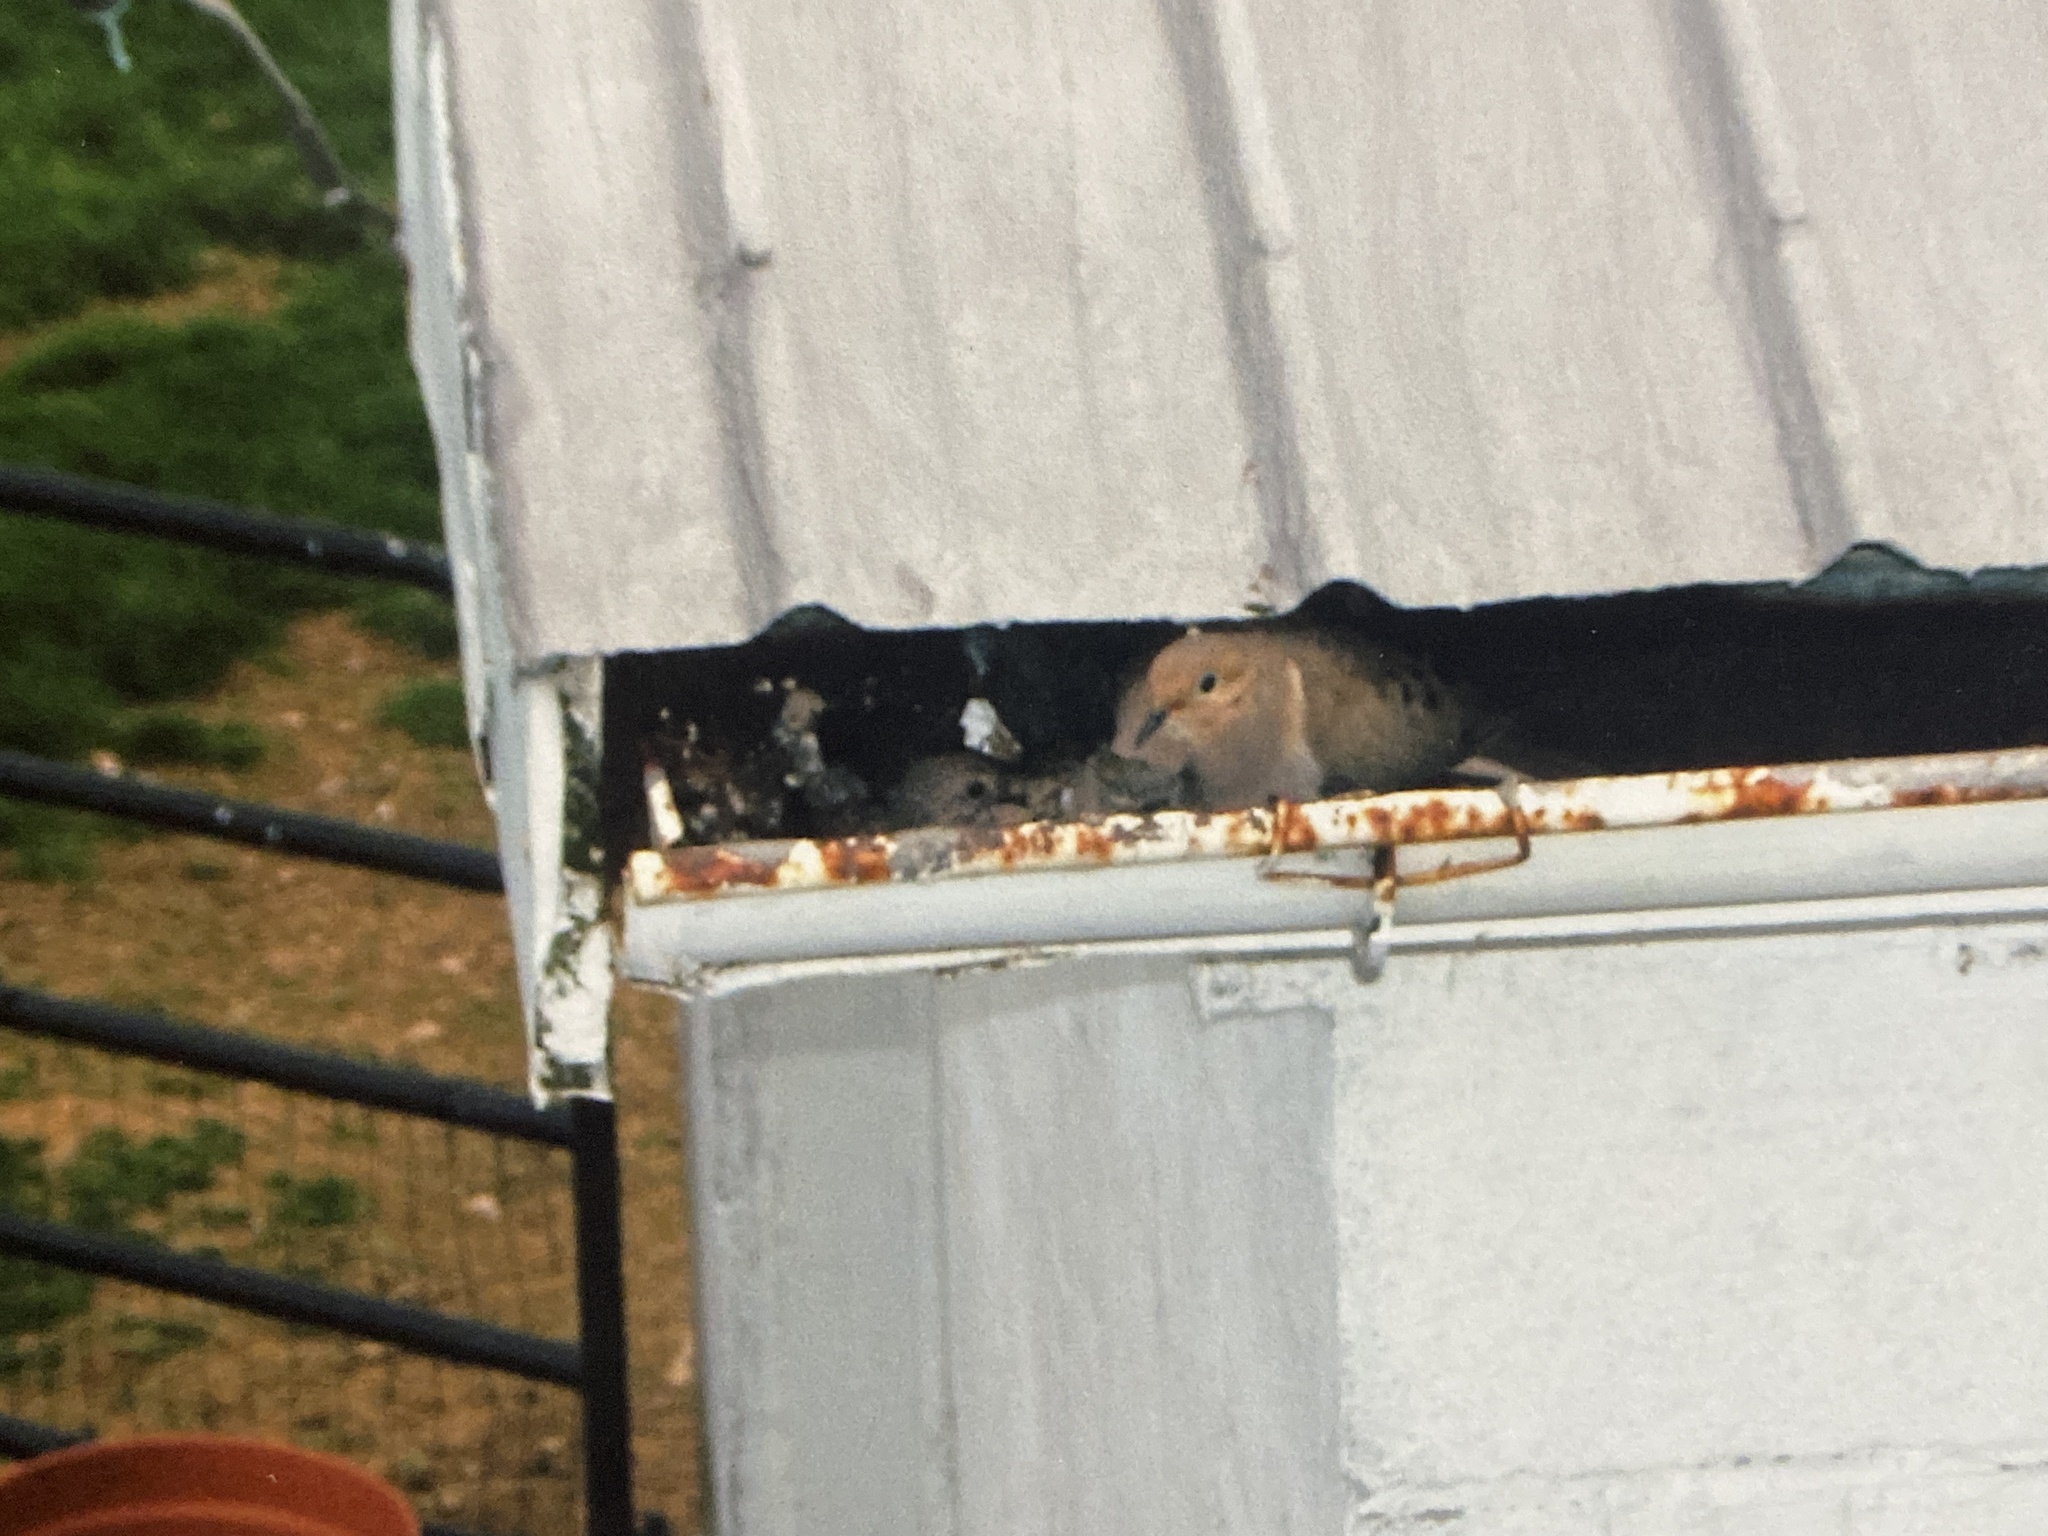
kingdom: Animalia
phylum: Chordata
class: Aves
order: Columbiformes
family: Columbidae
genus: Zenaida
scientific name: Zenaida macroura
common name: Mourning dove
